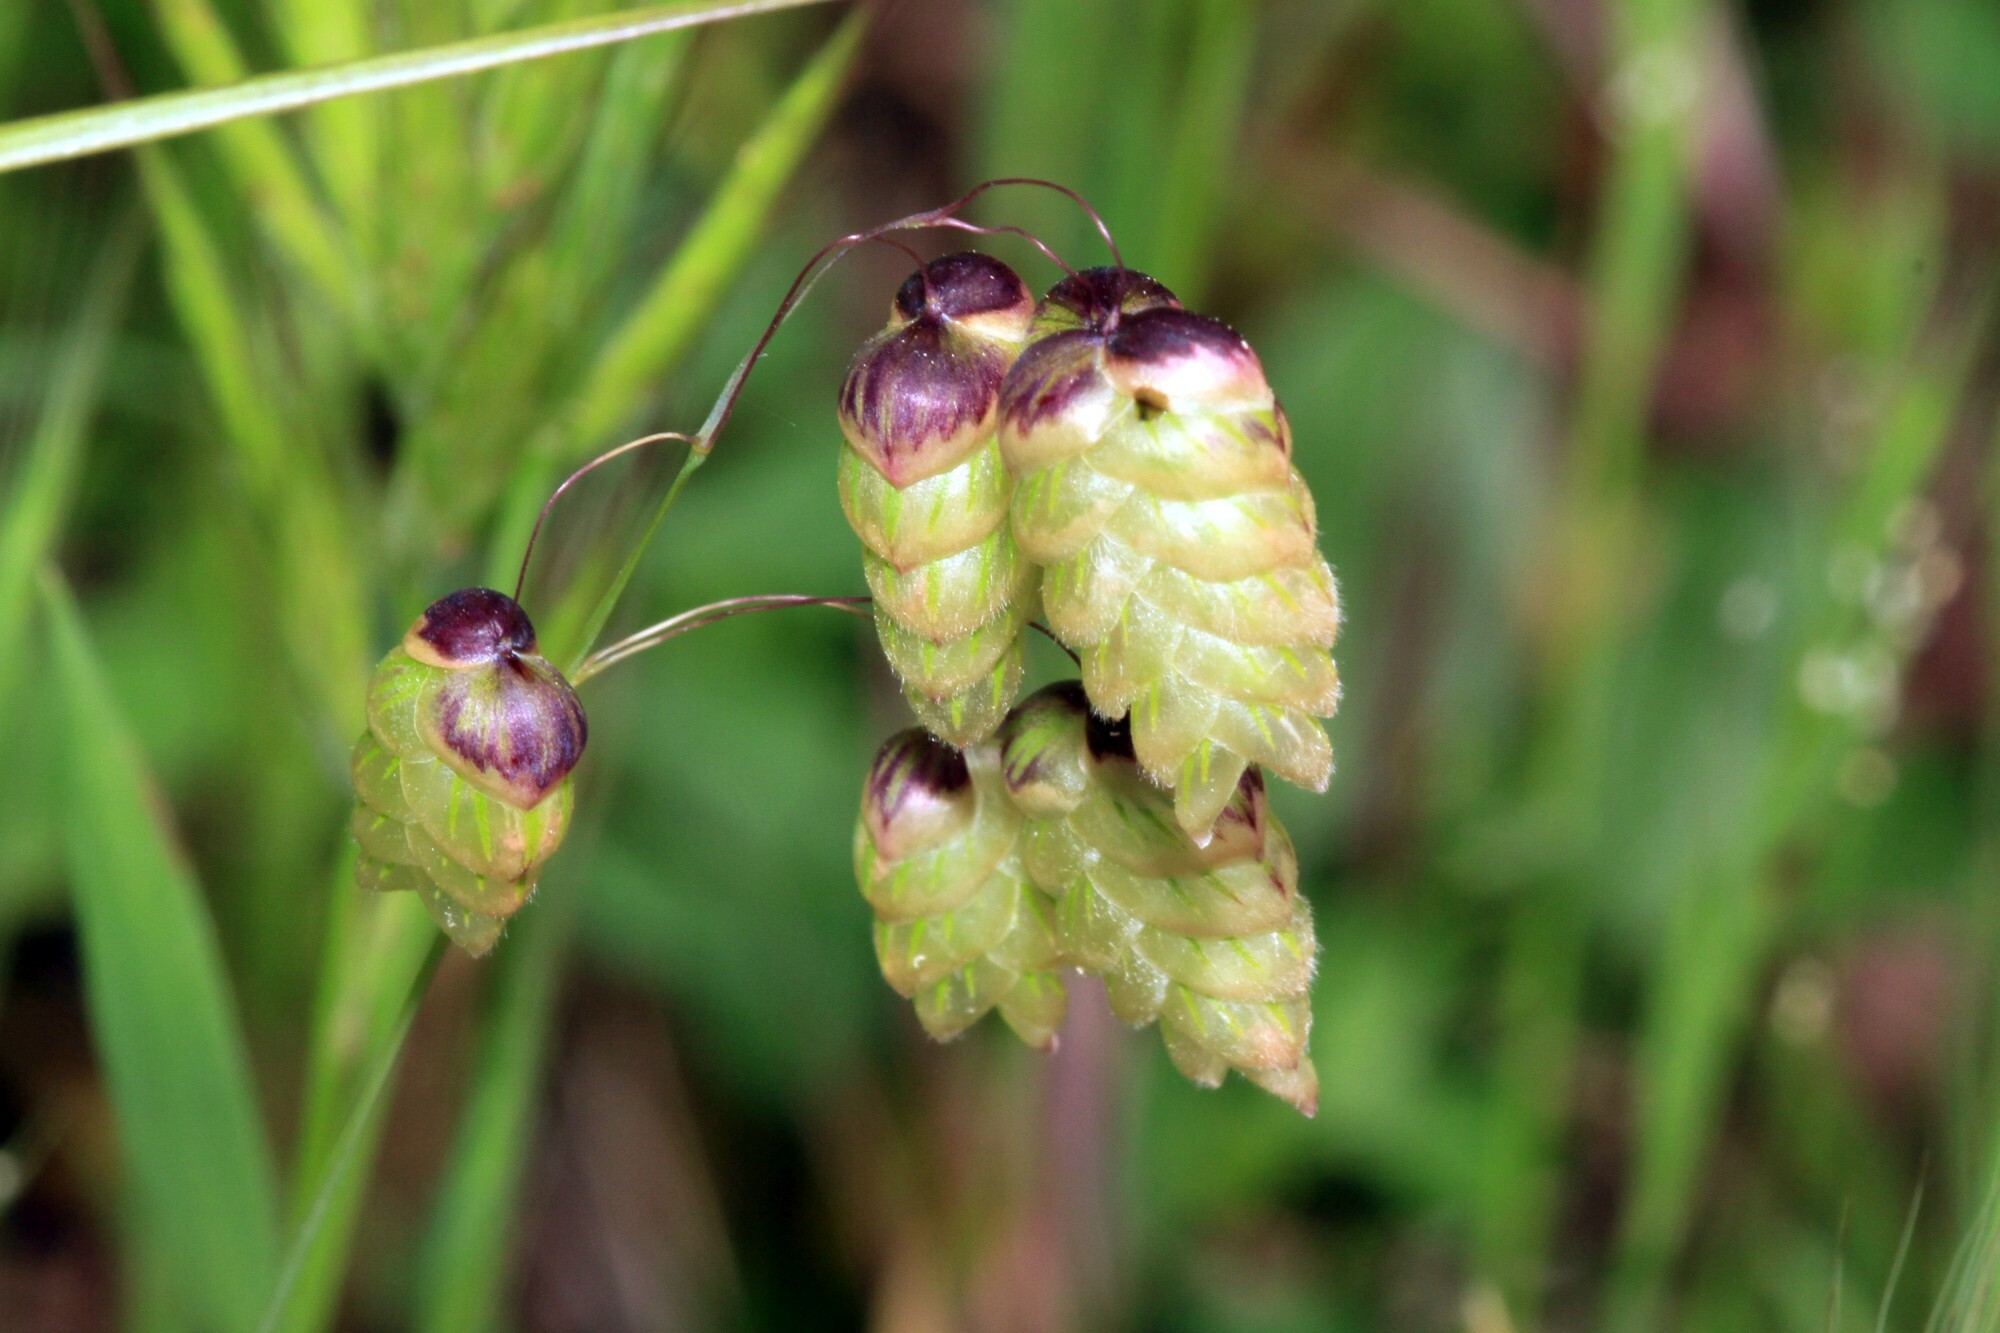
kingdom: Plantae
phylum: Tracheophyta
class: Liliopsida
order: Poales
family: Poaceae
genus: Briza
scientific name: Briza maxima
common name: Big quakinggrass
